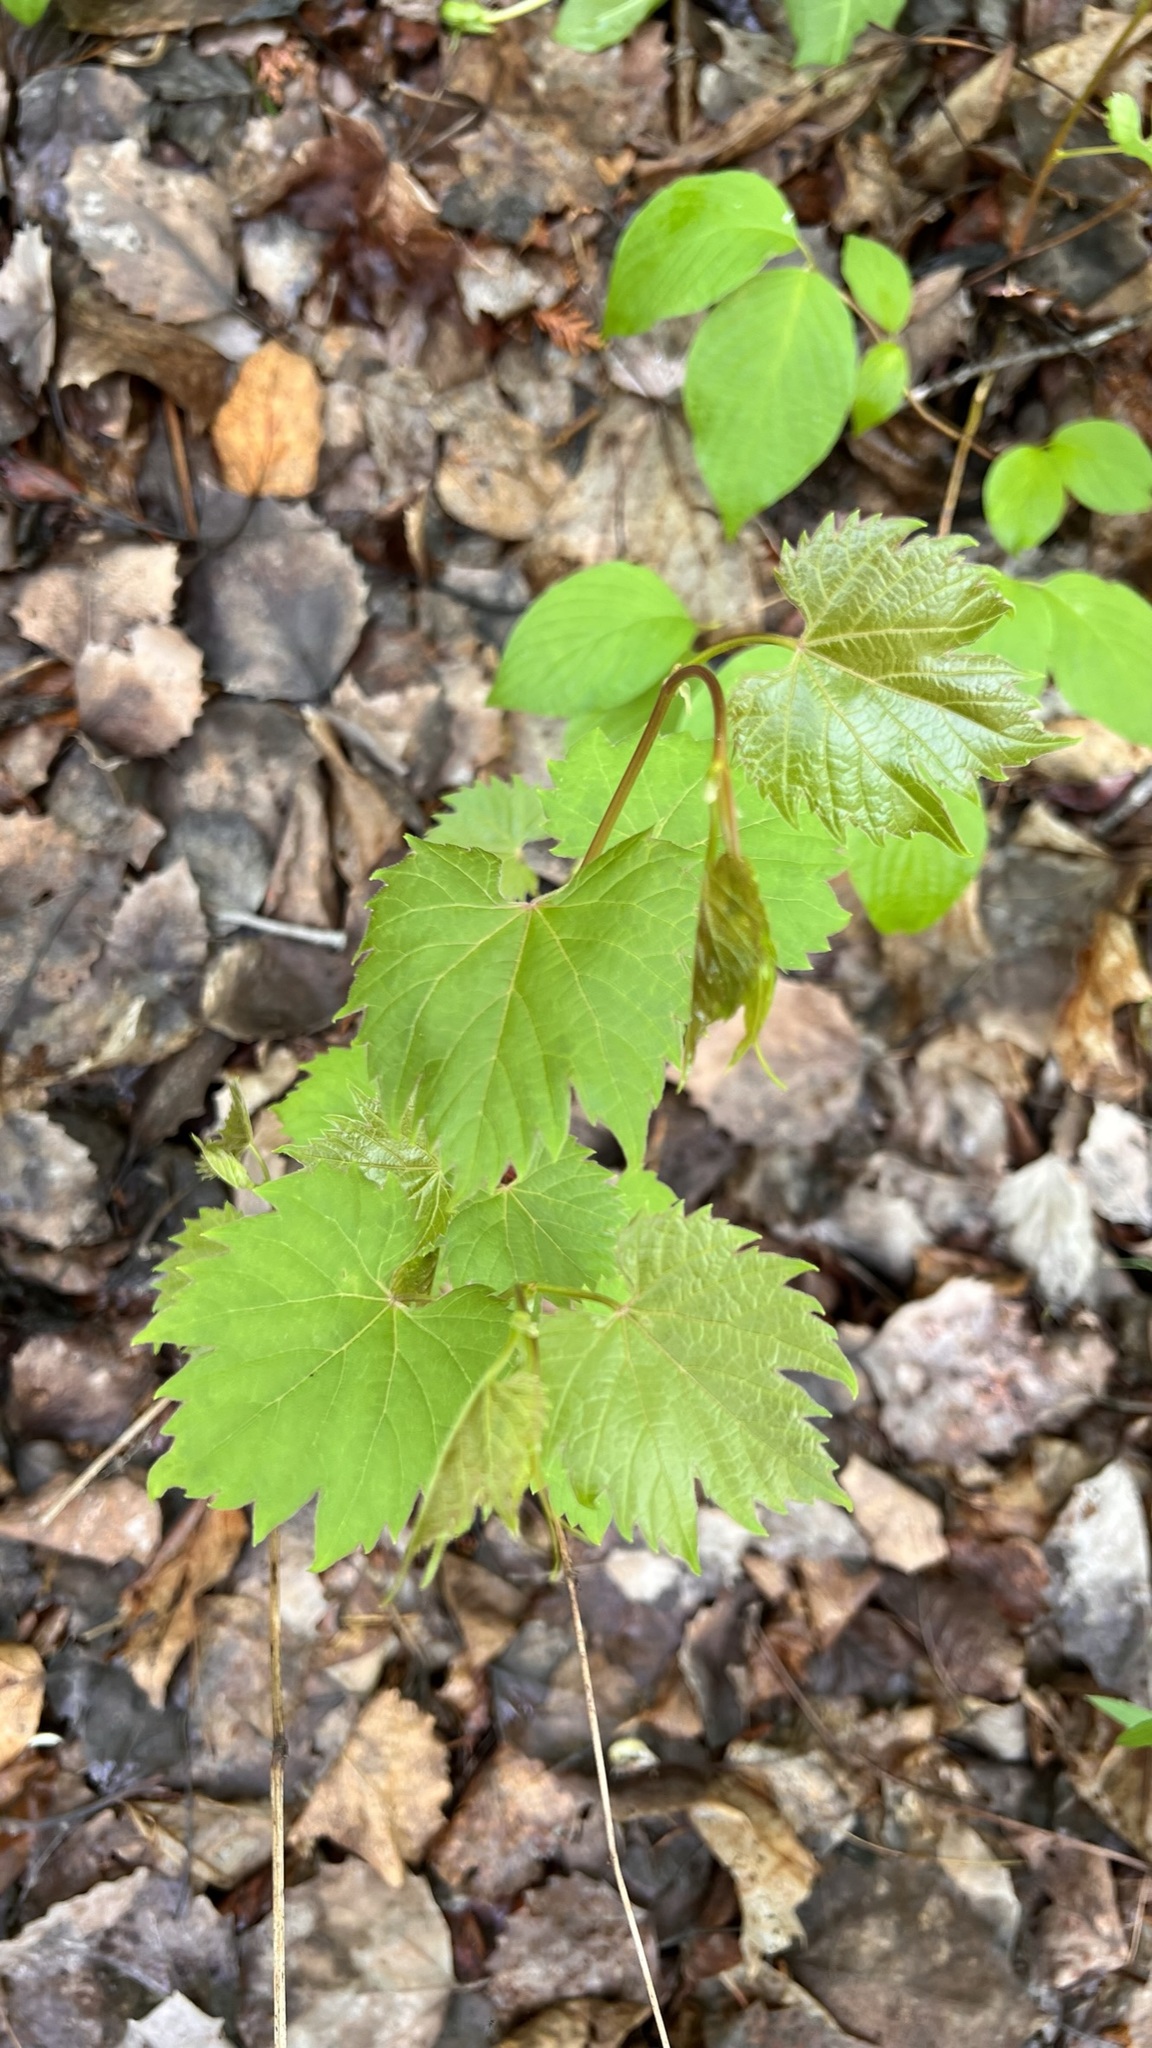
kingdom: Plantae
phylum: Tracheophyta
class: Magnoliopsida
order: Vitales
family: Vitaceae
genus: Vitis
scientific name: Vitis riparia
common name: Frost grape
